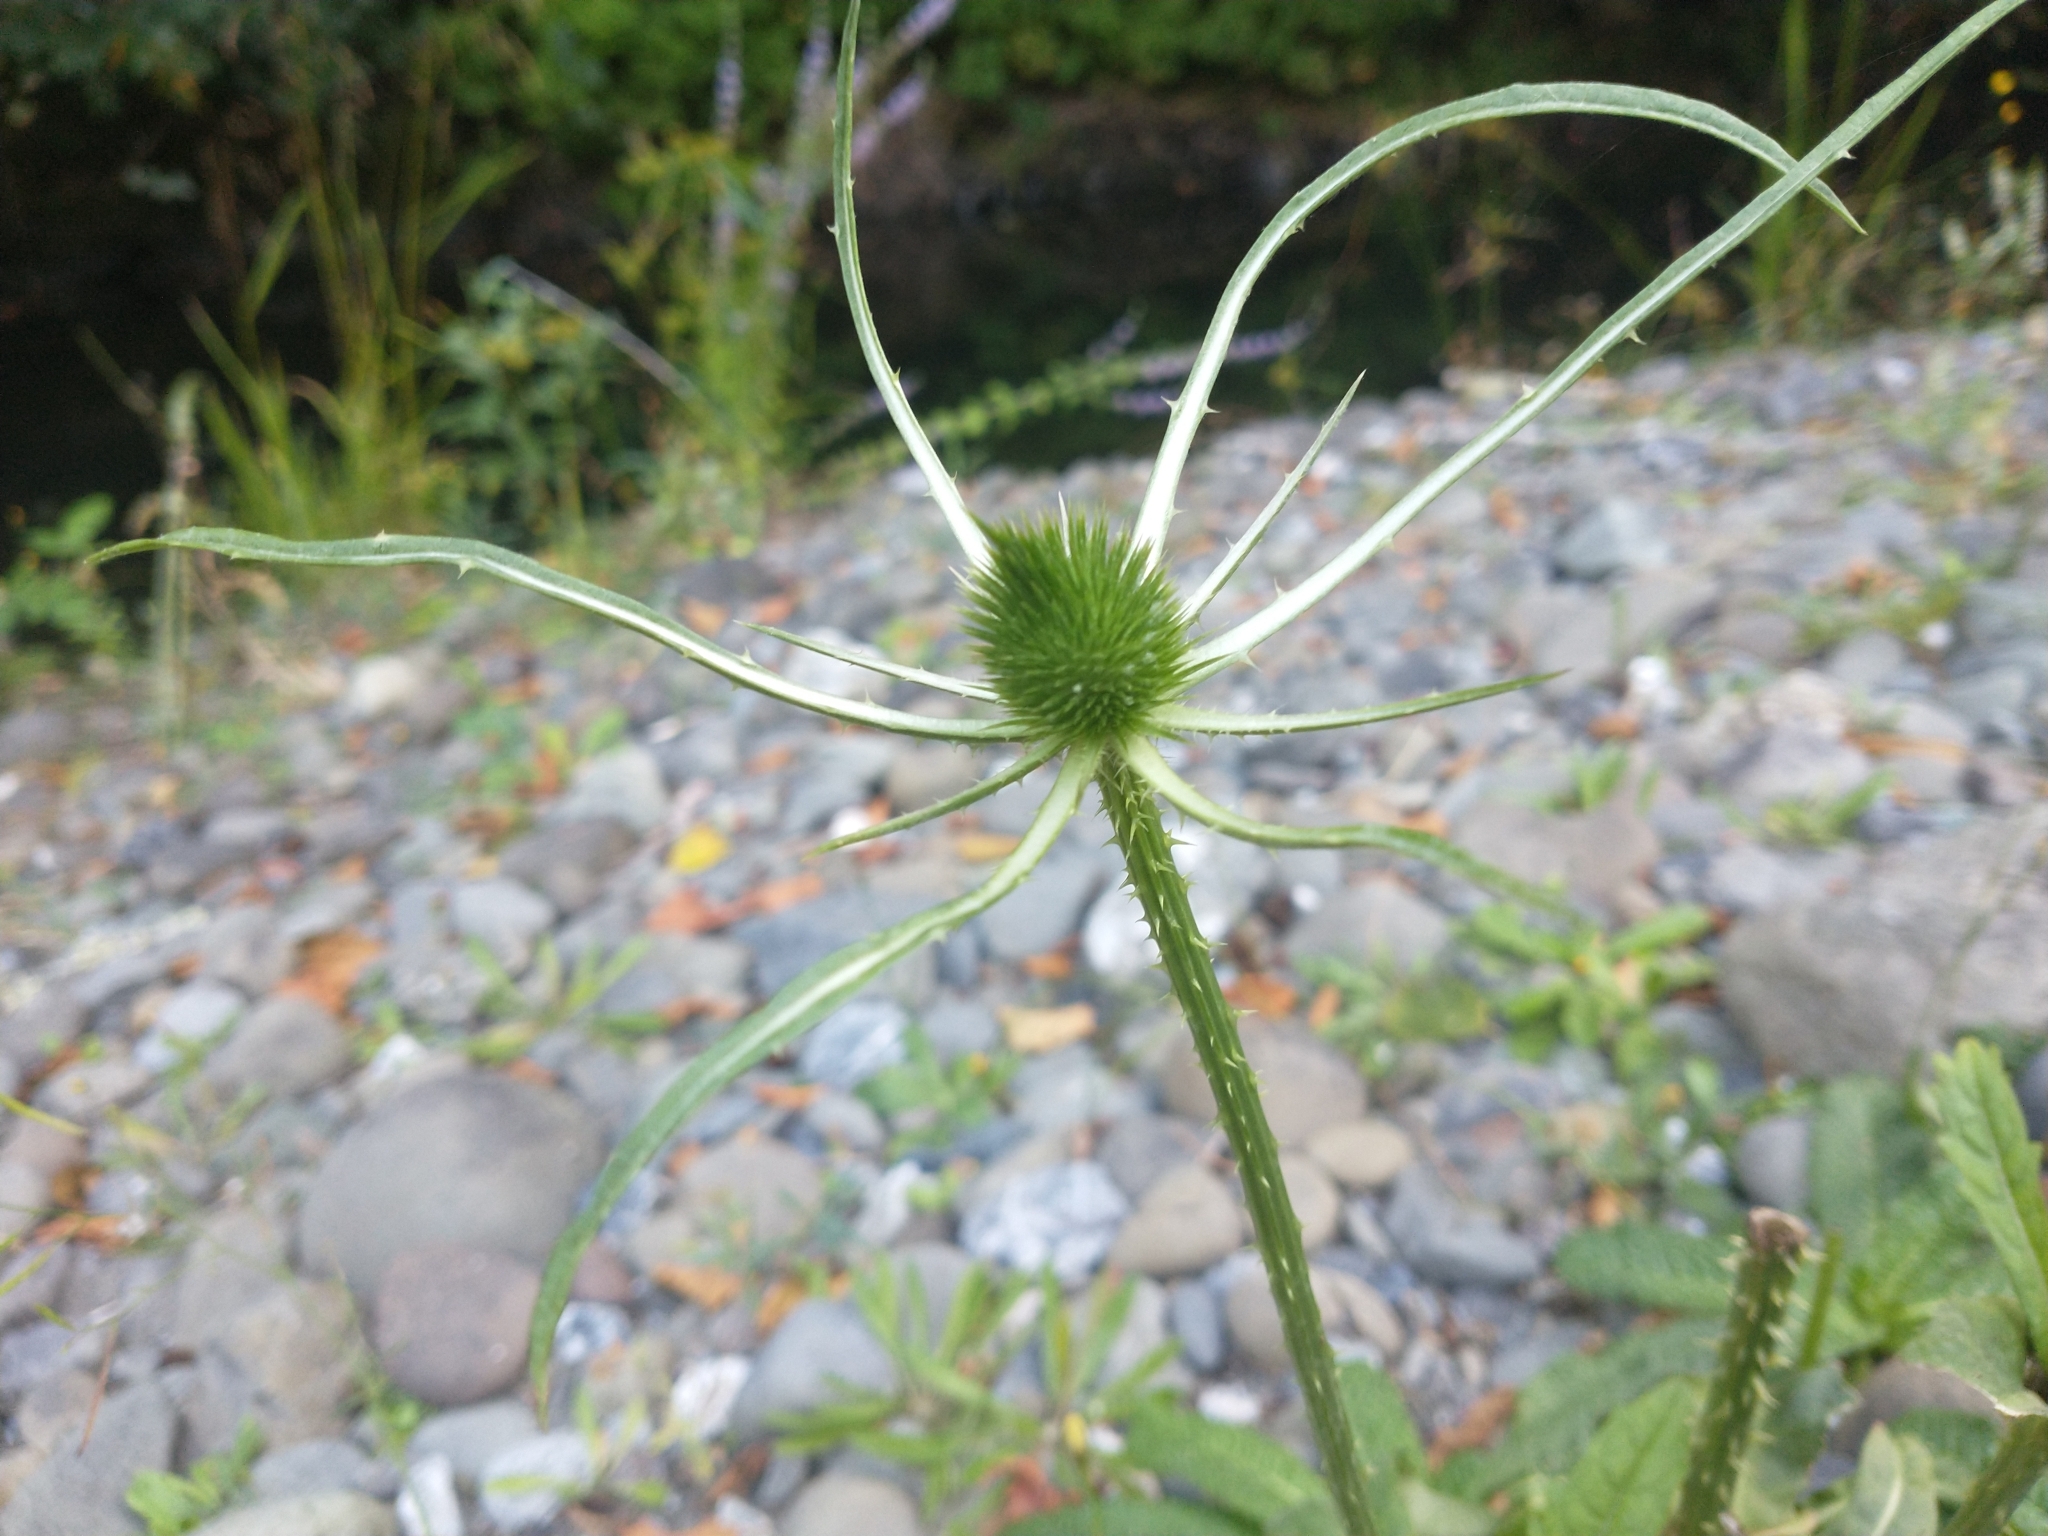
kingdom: Plantae
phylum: Tracheophyta
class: Magnoliopsida
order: Dipsacales
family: Caprifoliaceae
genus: Dipsacus
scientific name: Dipsacus fullonum
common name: Teasel
